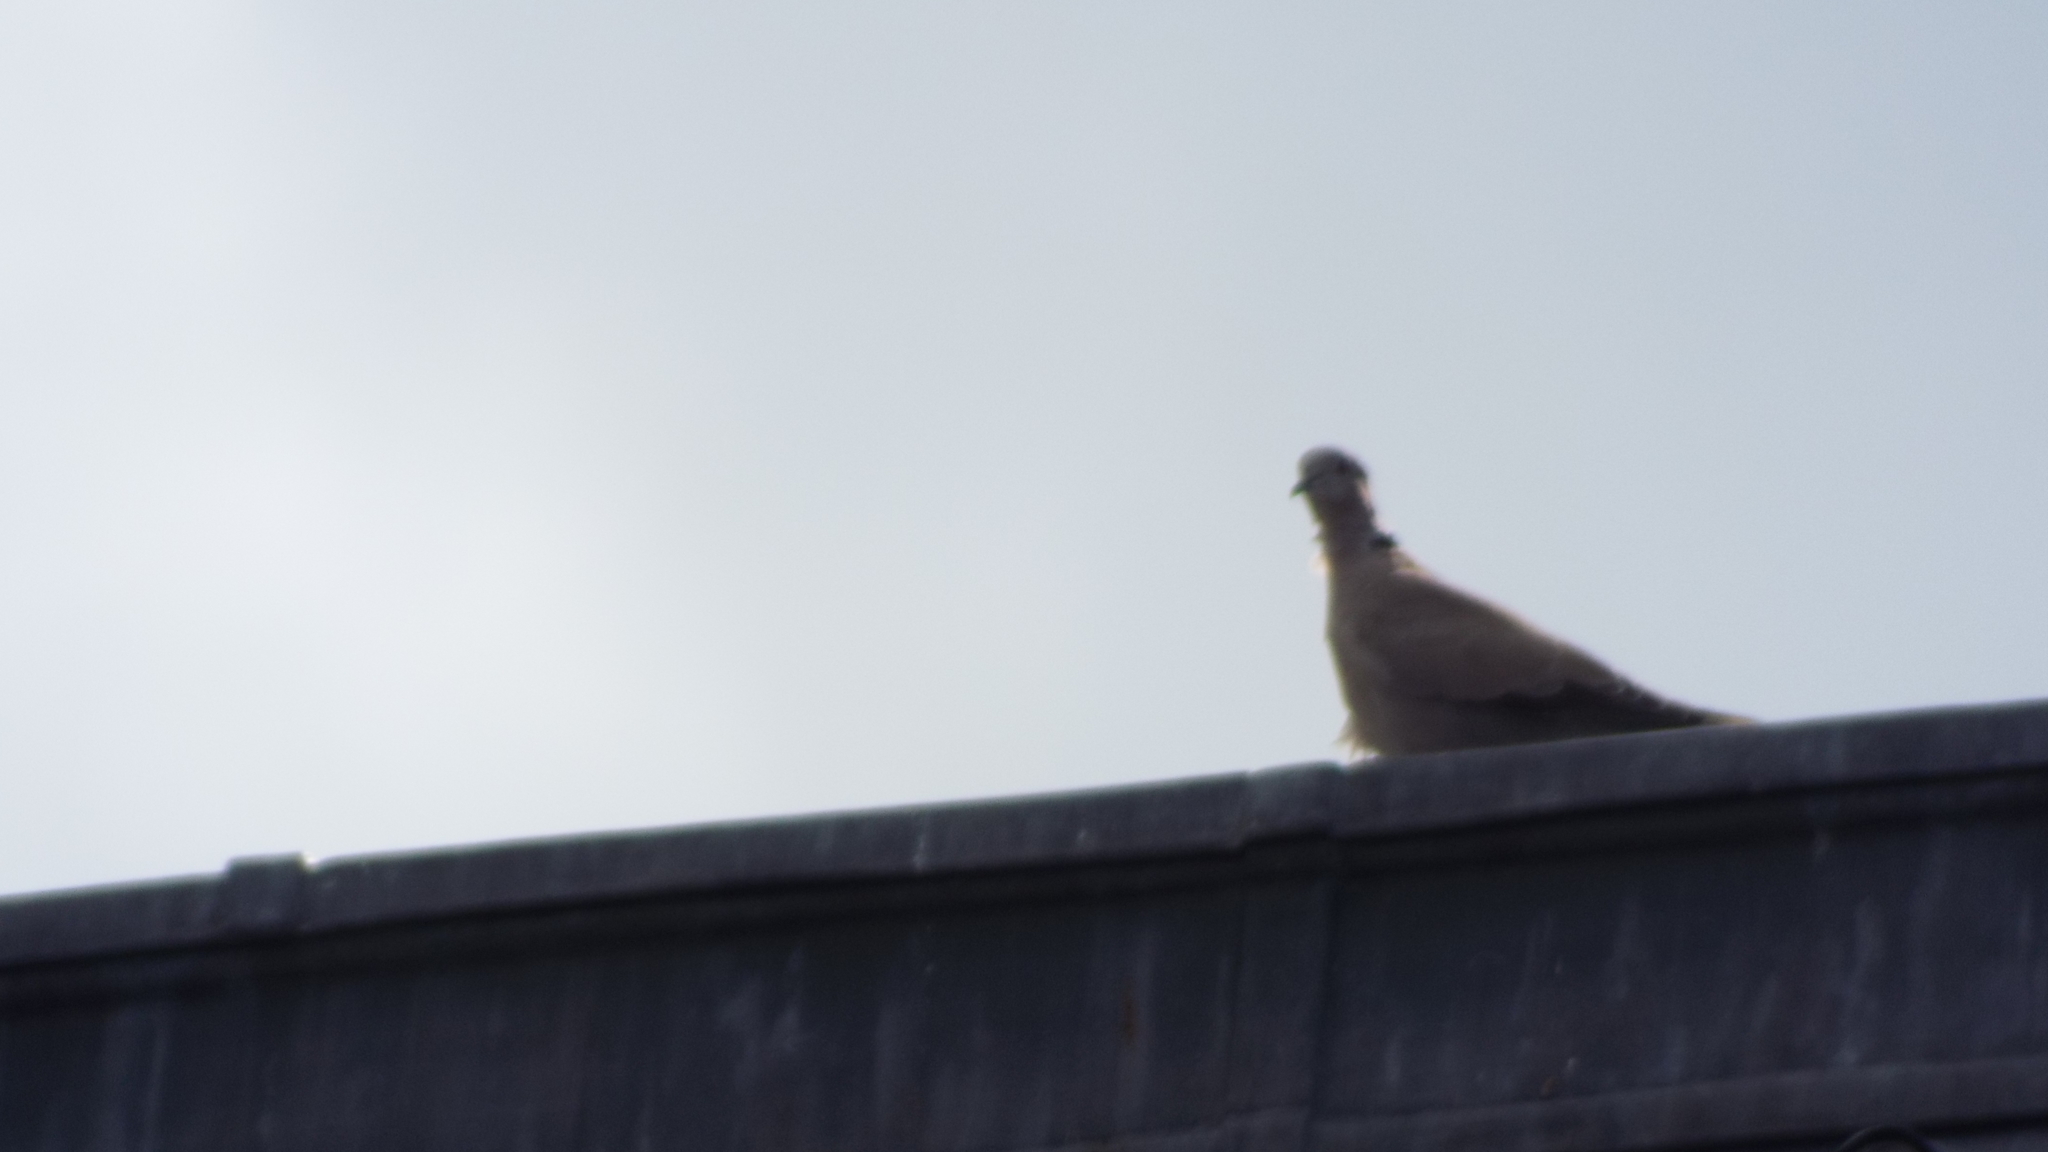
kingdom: Animalia
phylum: Chordata
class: Aves
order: Columbiformes
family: Columbidae
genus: Streptopelia
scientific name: Streptopelia decaocto
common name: Eurasian collared dove
